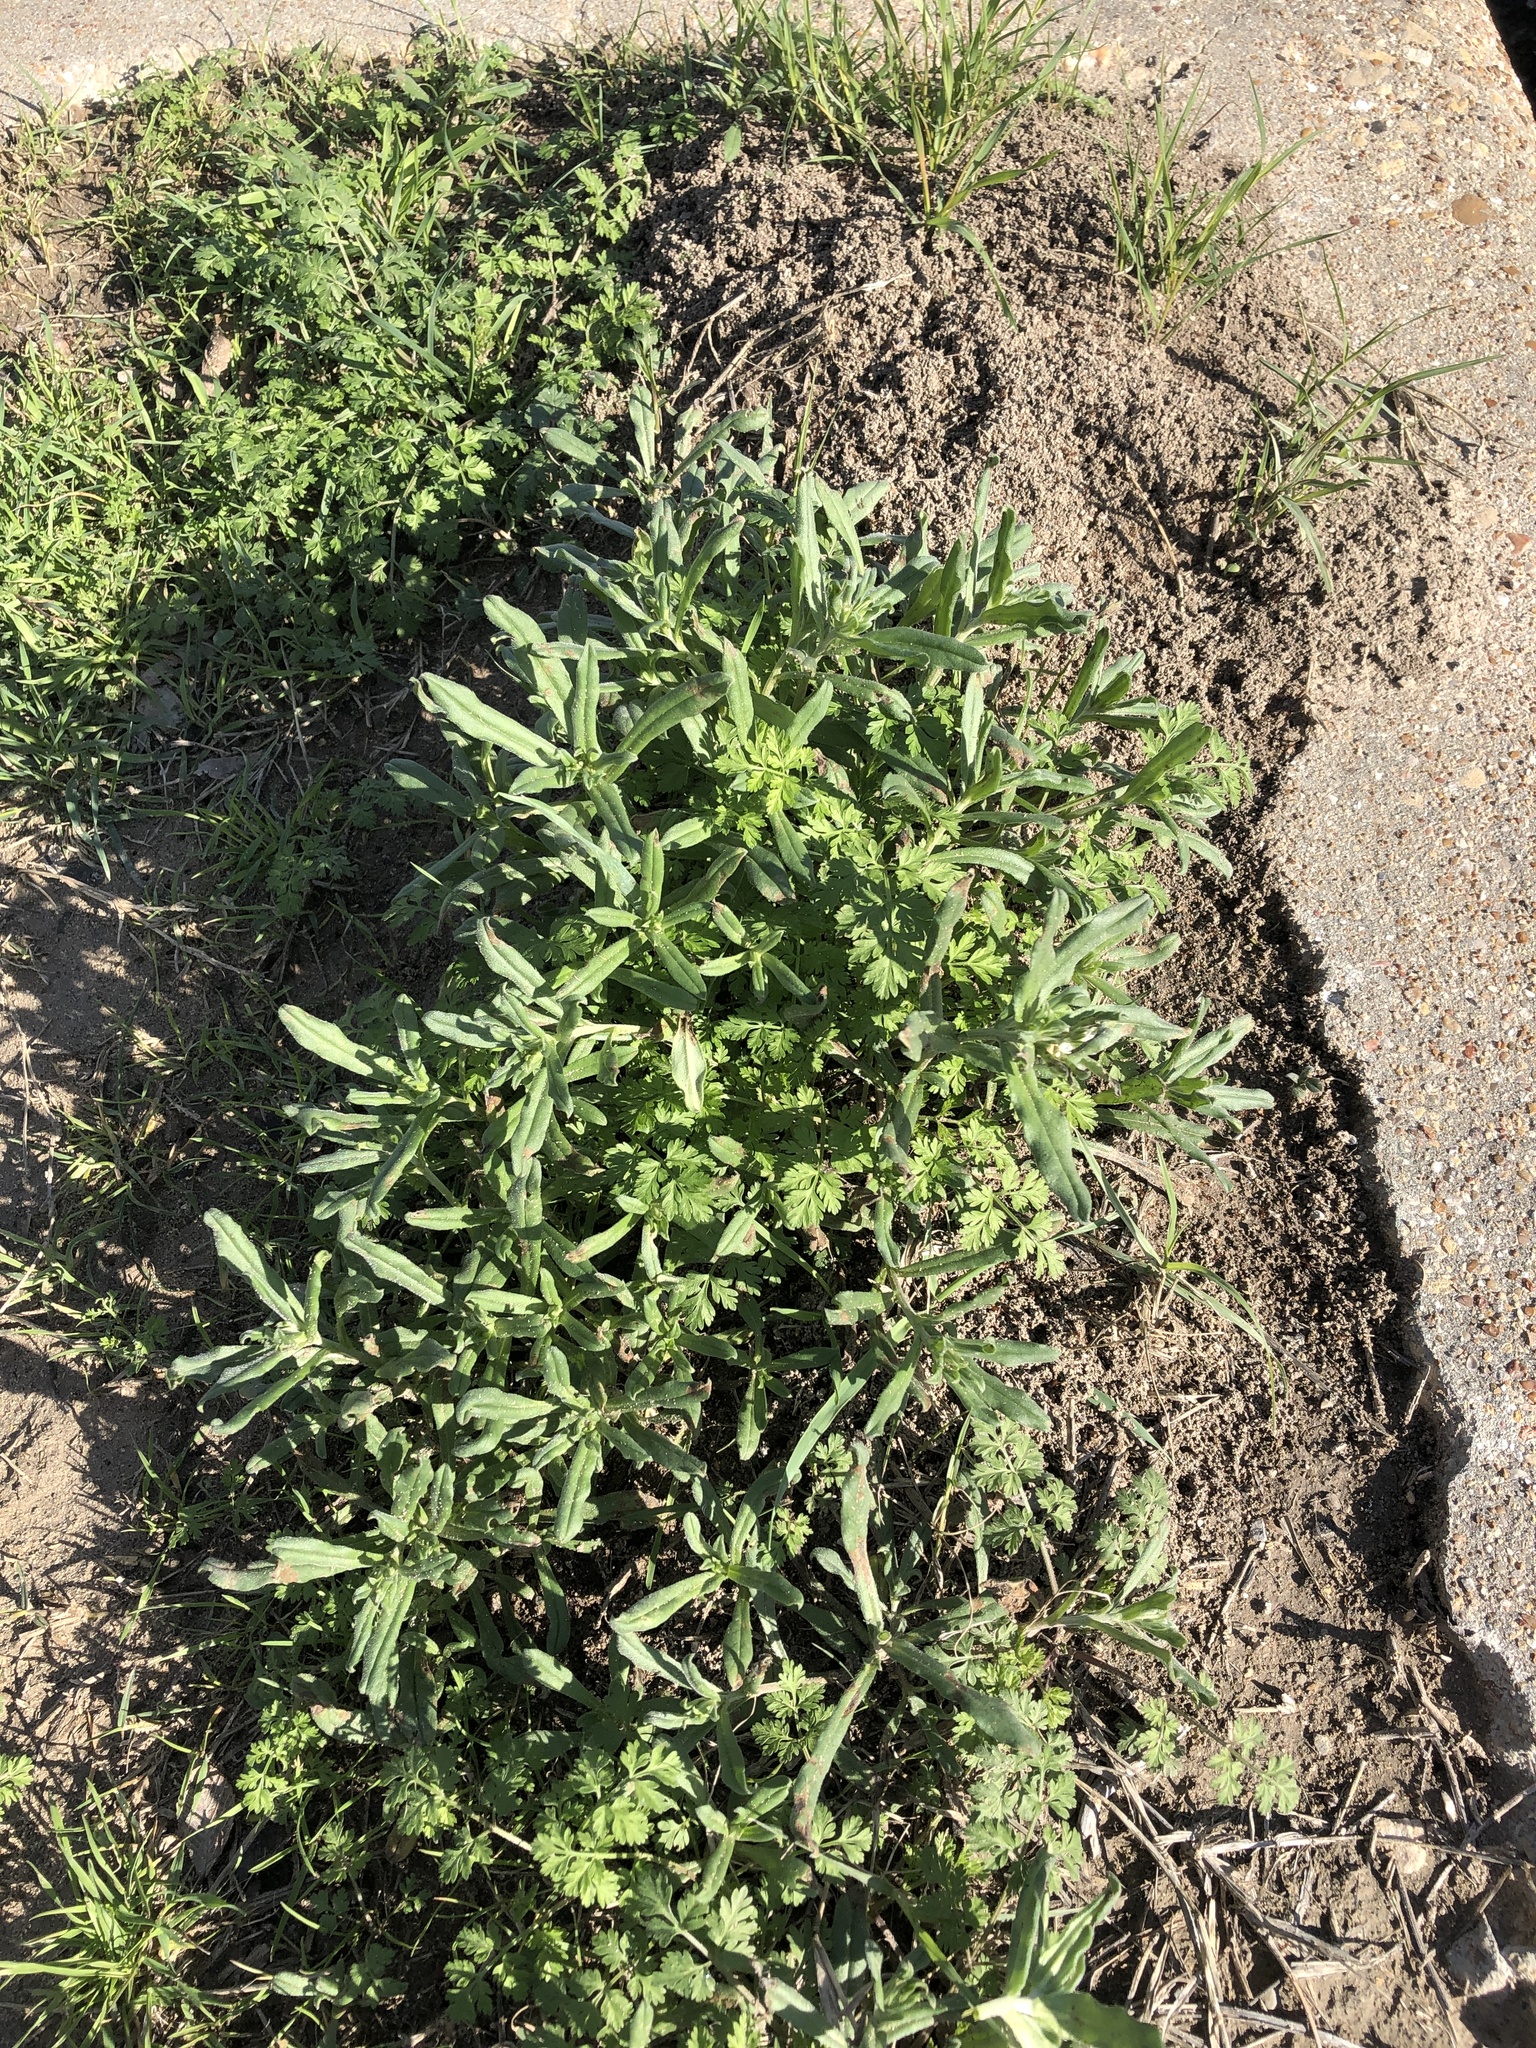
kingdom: Plantae
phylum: Tracheophyta
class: Magnoliopsida
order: Boraginales
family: Boraginaceae
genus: Buglossoides
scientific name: Buglossoides arvensis
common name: Corn gromwell
